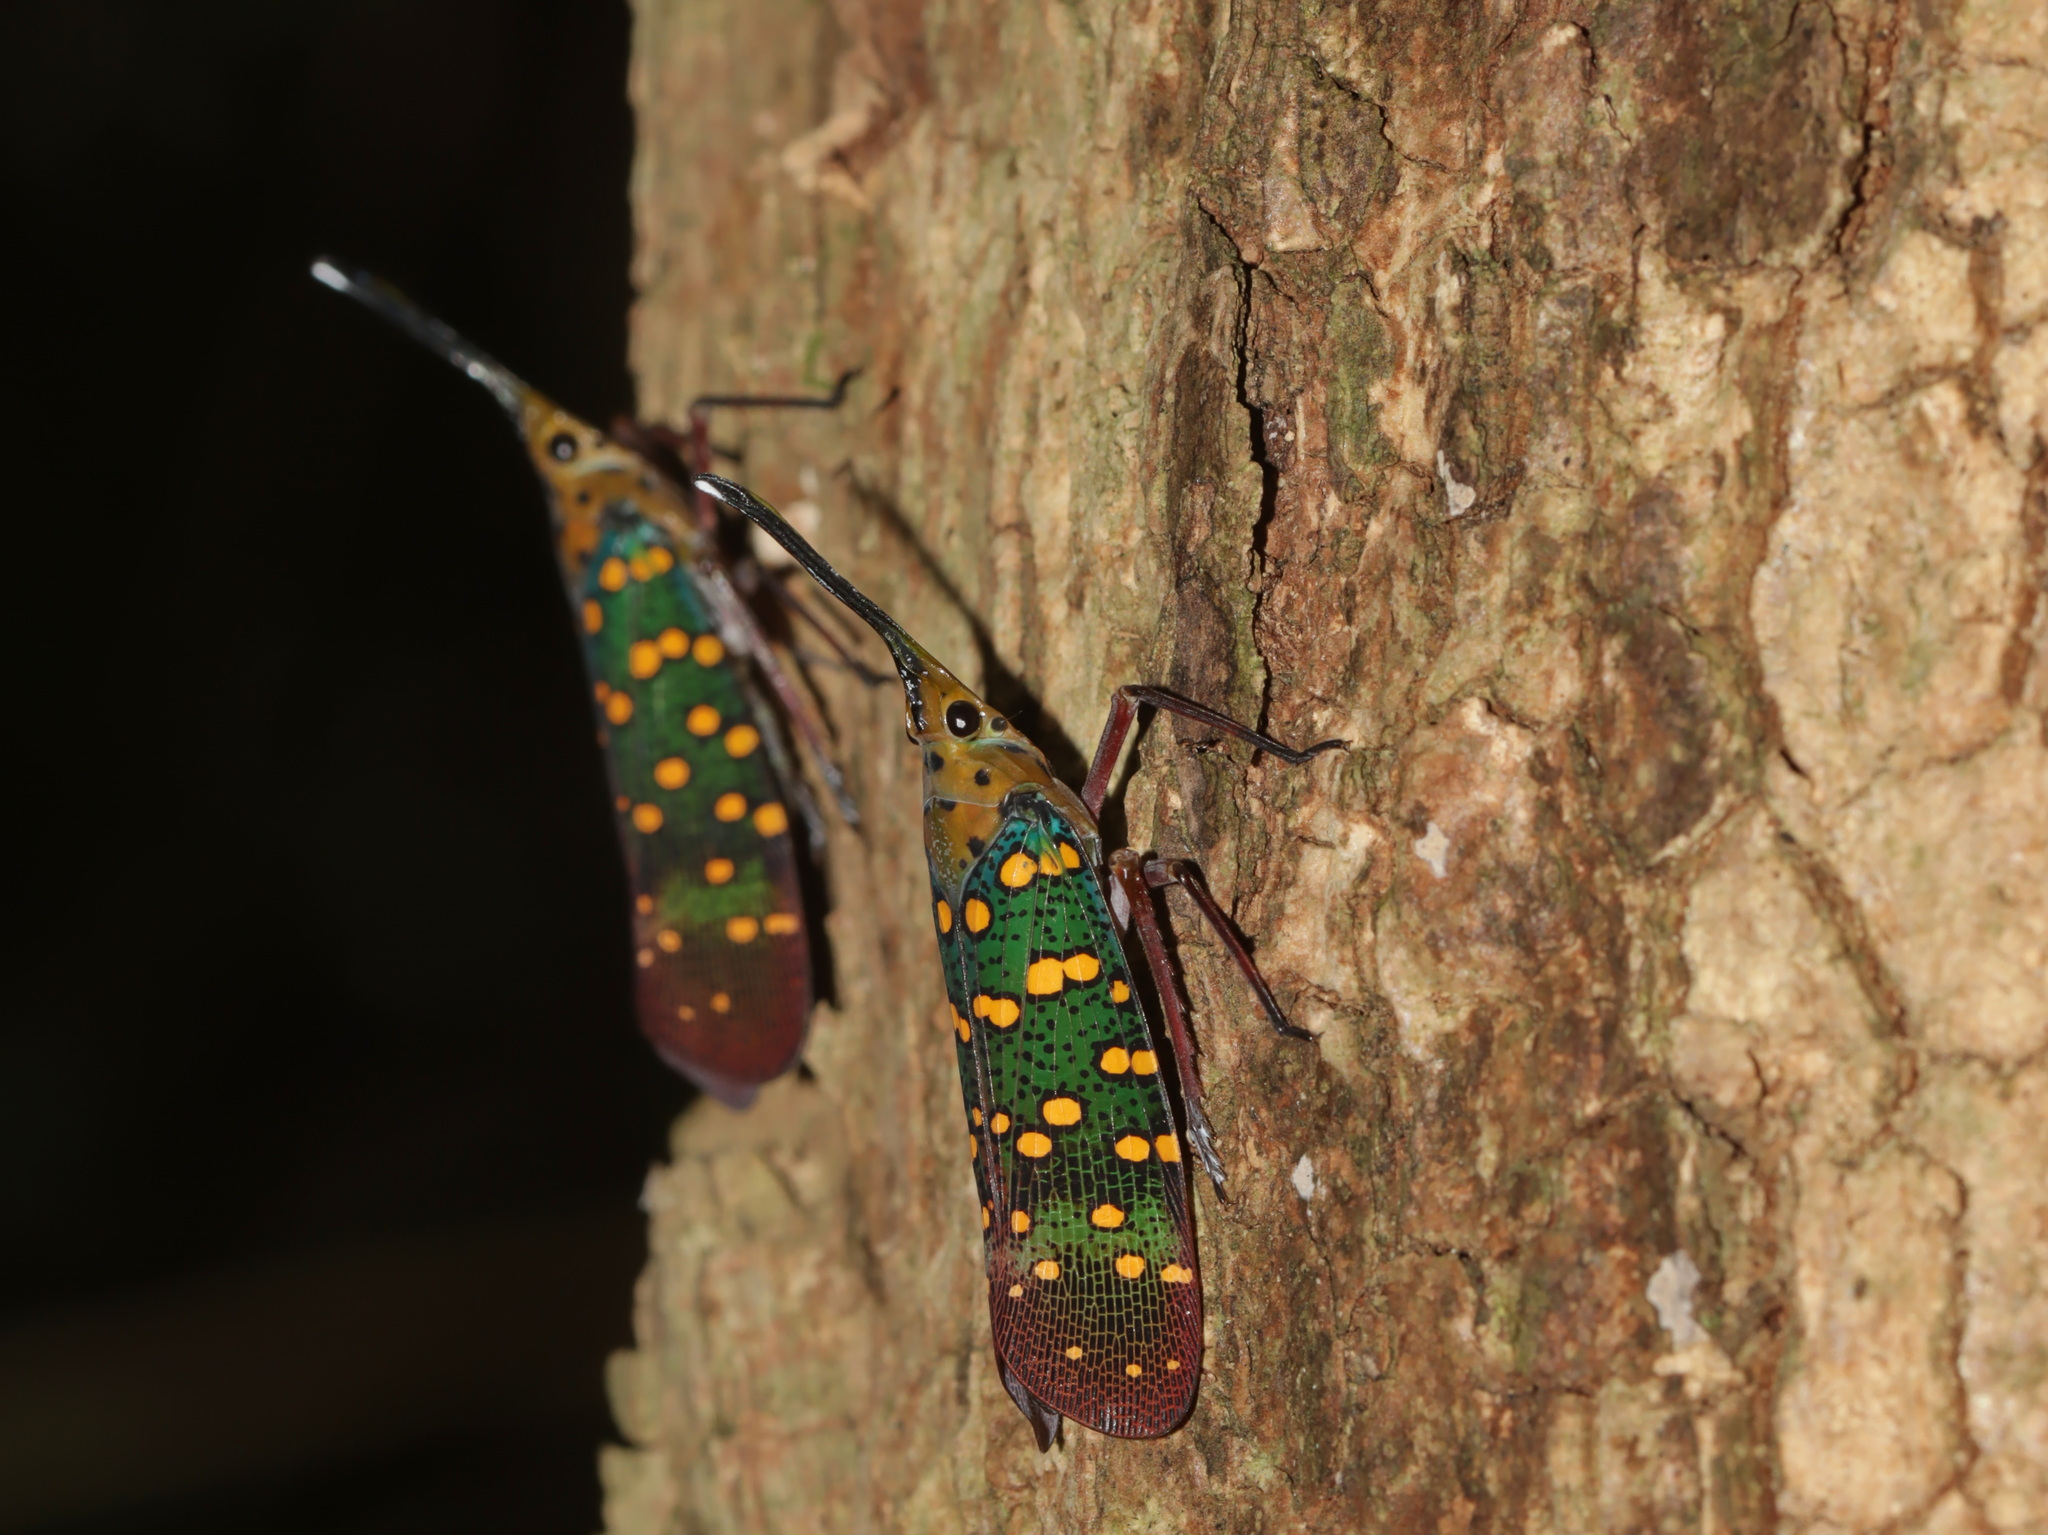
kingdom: Animalia
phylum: Arthropoda
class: Insecta
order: Hemiptera
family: Fulgoridae
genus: Saiva
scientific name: Saiva gemmata
